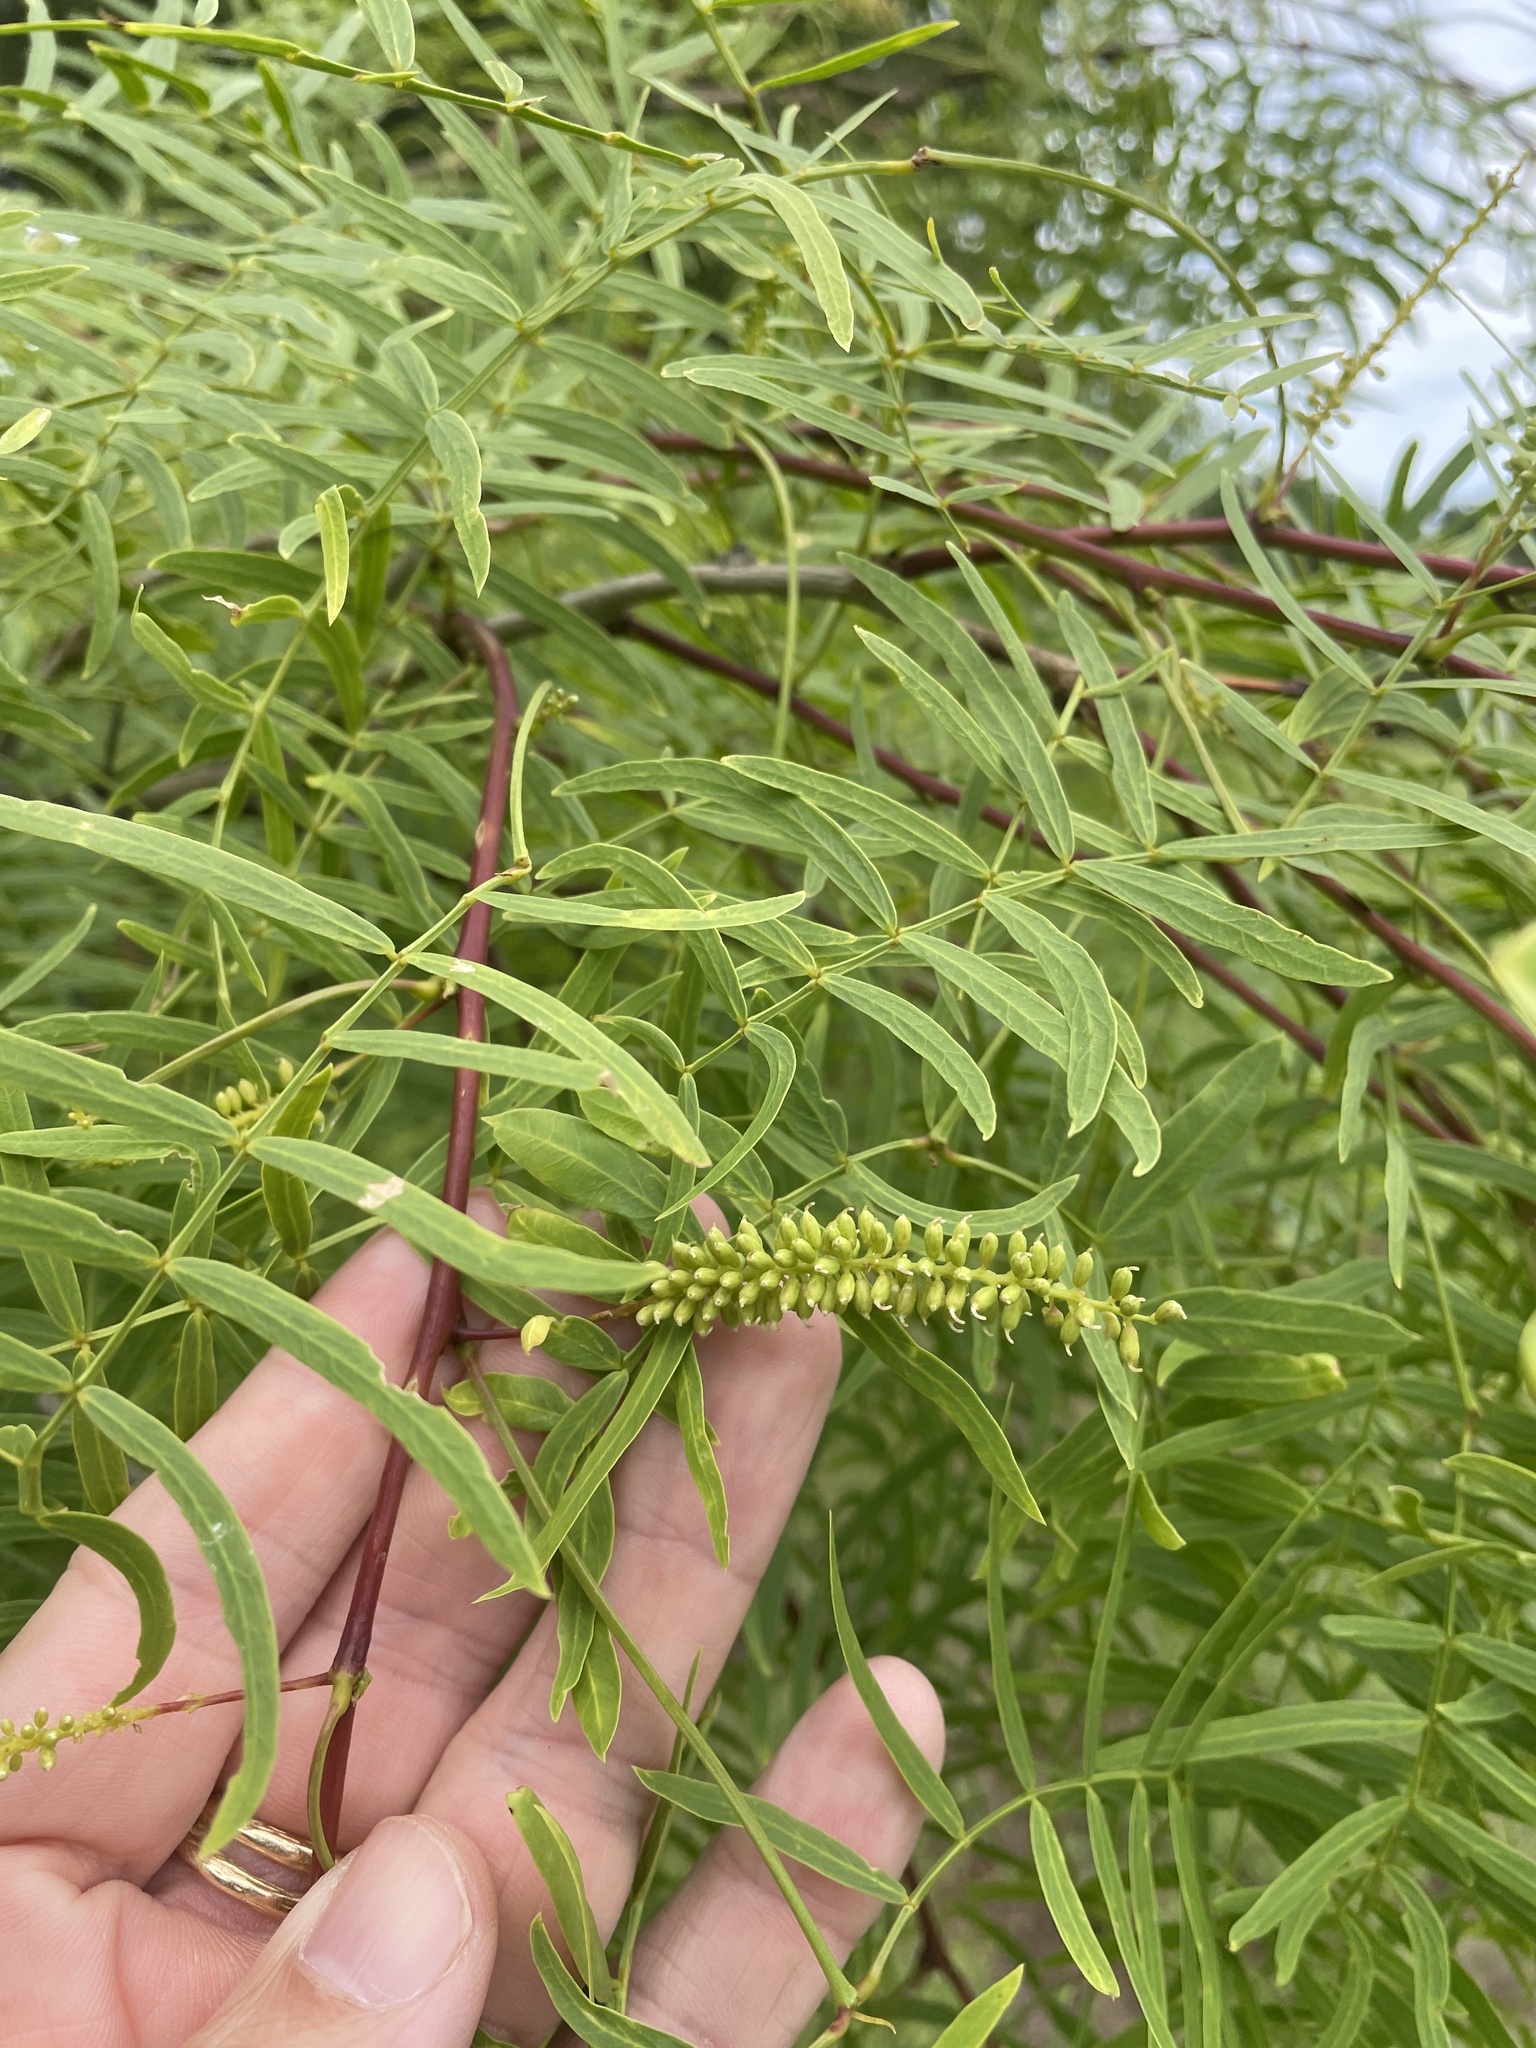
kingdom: Plantae
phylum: Tracheophyta
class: Magnoliopsida
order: Fabales
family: Fabaceae
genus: Prosopis
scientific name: Prosopis glandulosa
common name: Honey mesquite
